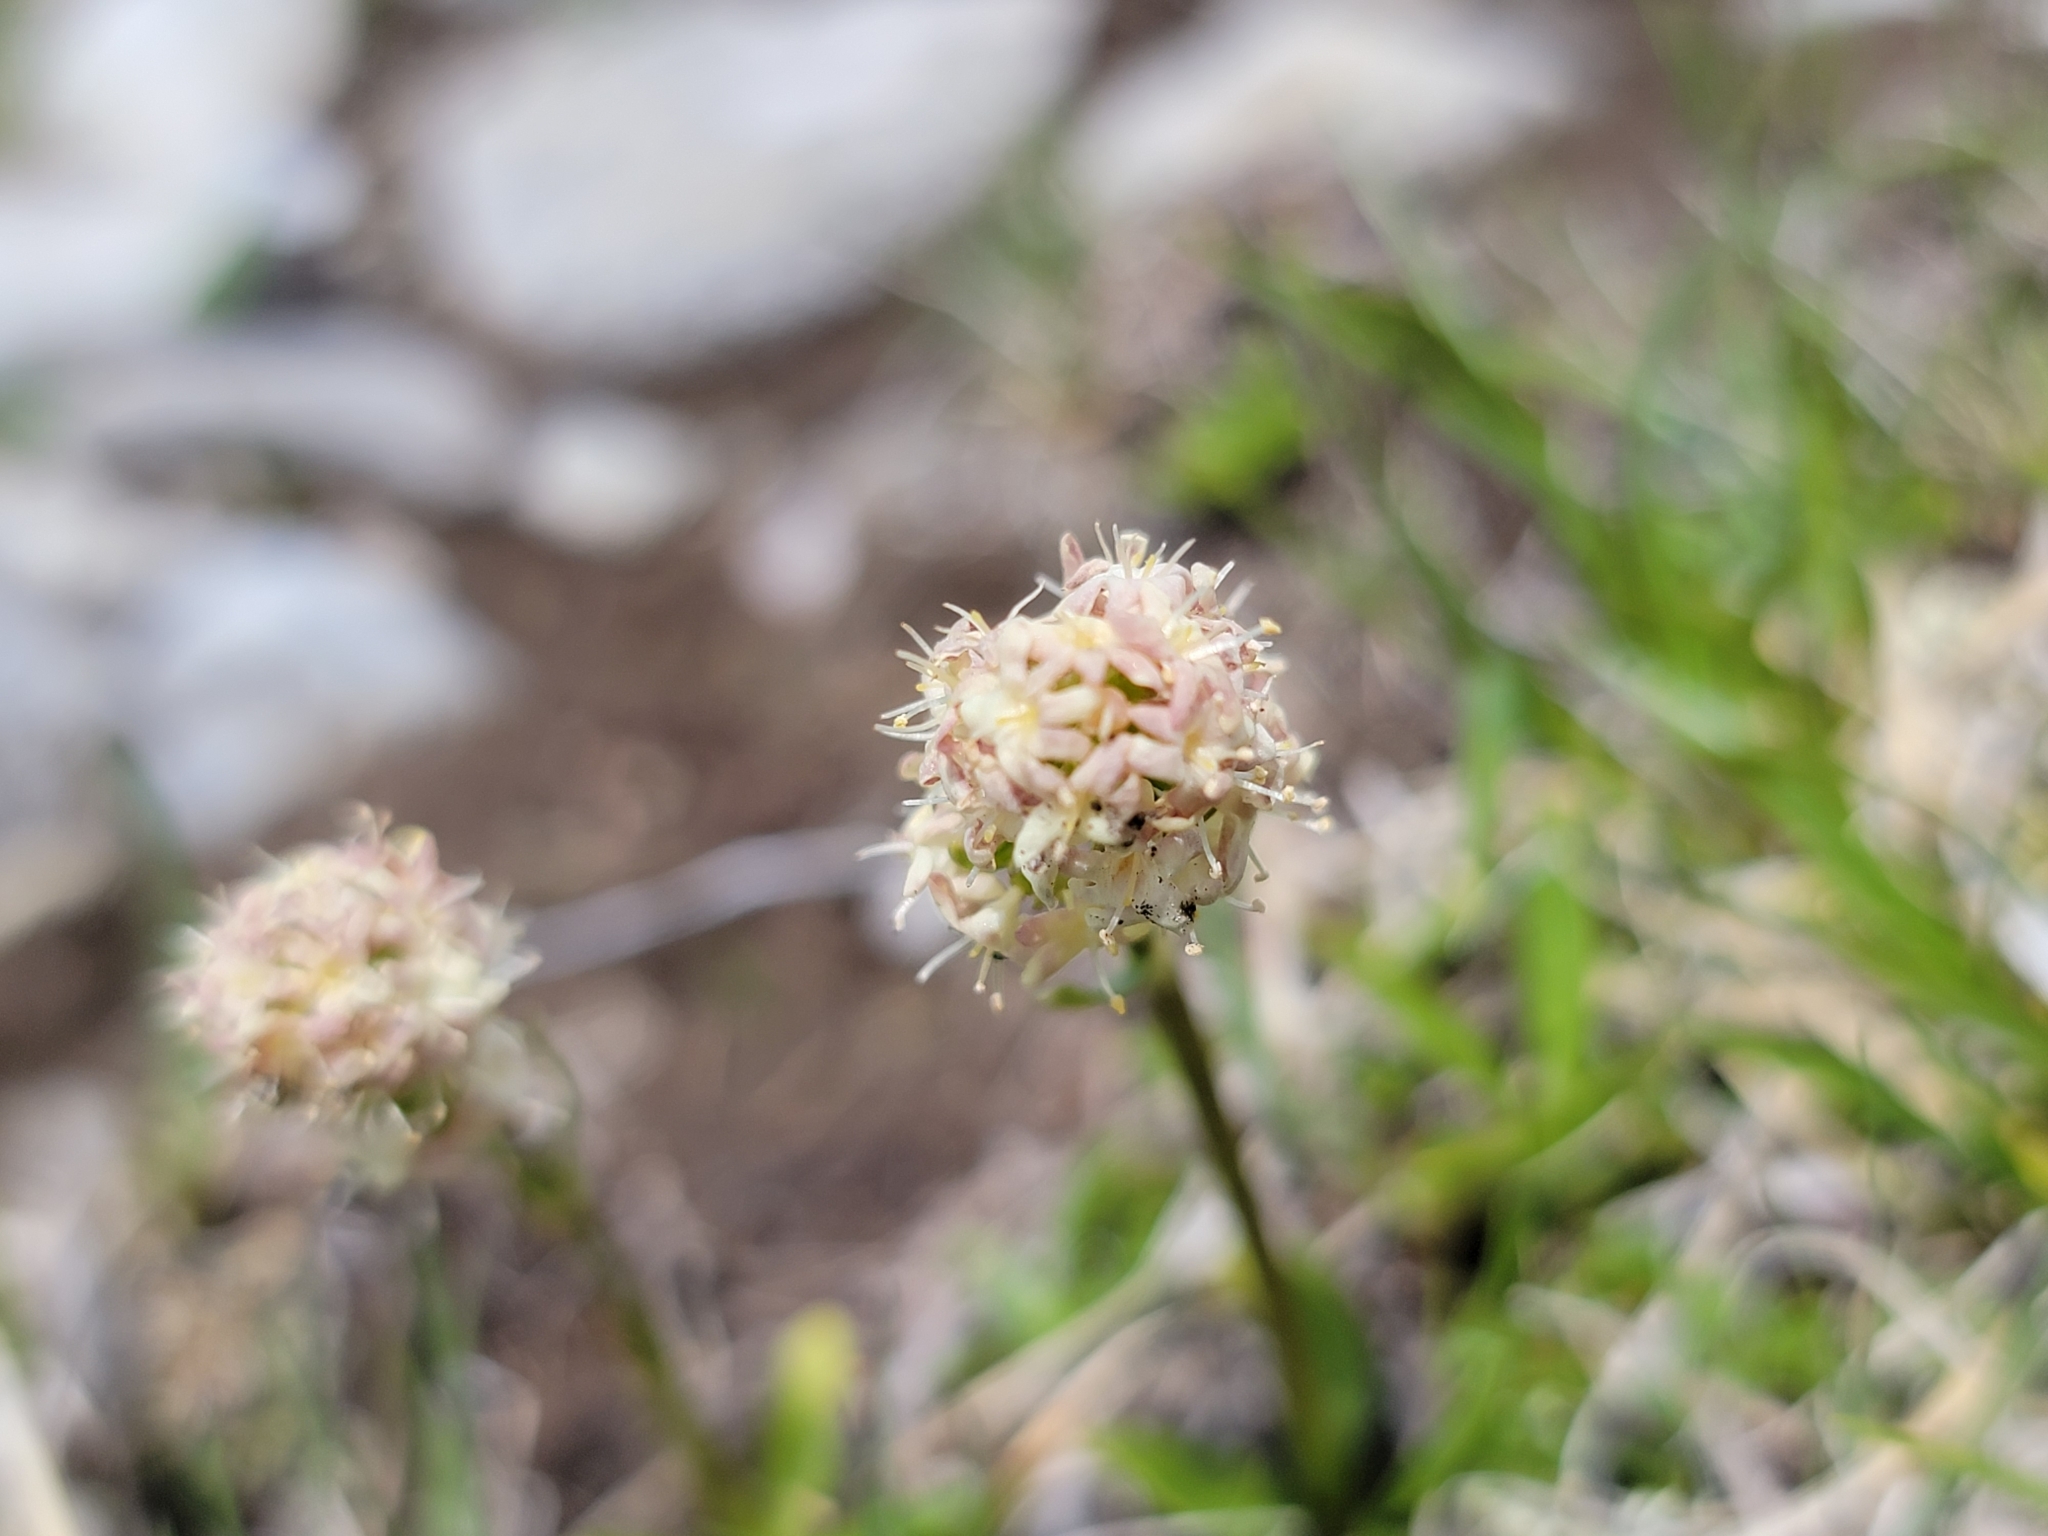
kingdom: Plantae
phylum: Tracheophyta
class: Magnoliopsida
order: Dipsacales
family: Caprifoliaceae
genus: Valeriana
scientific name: Valeriana celtica
